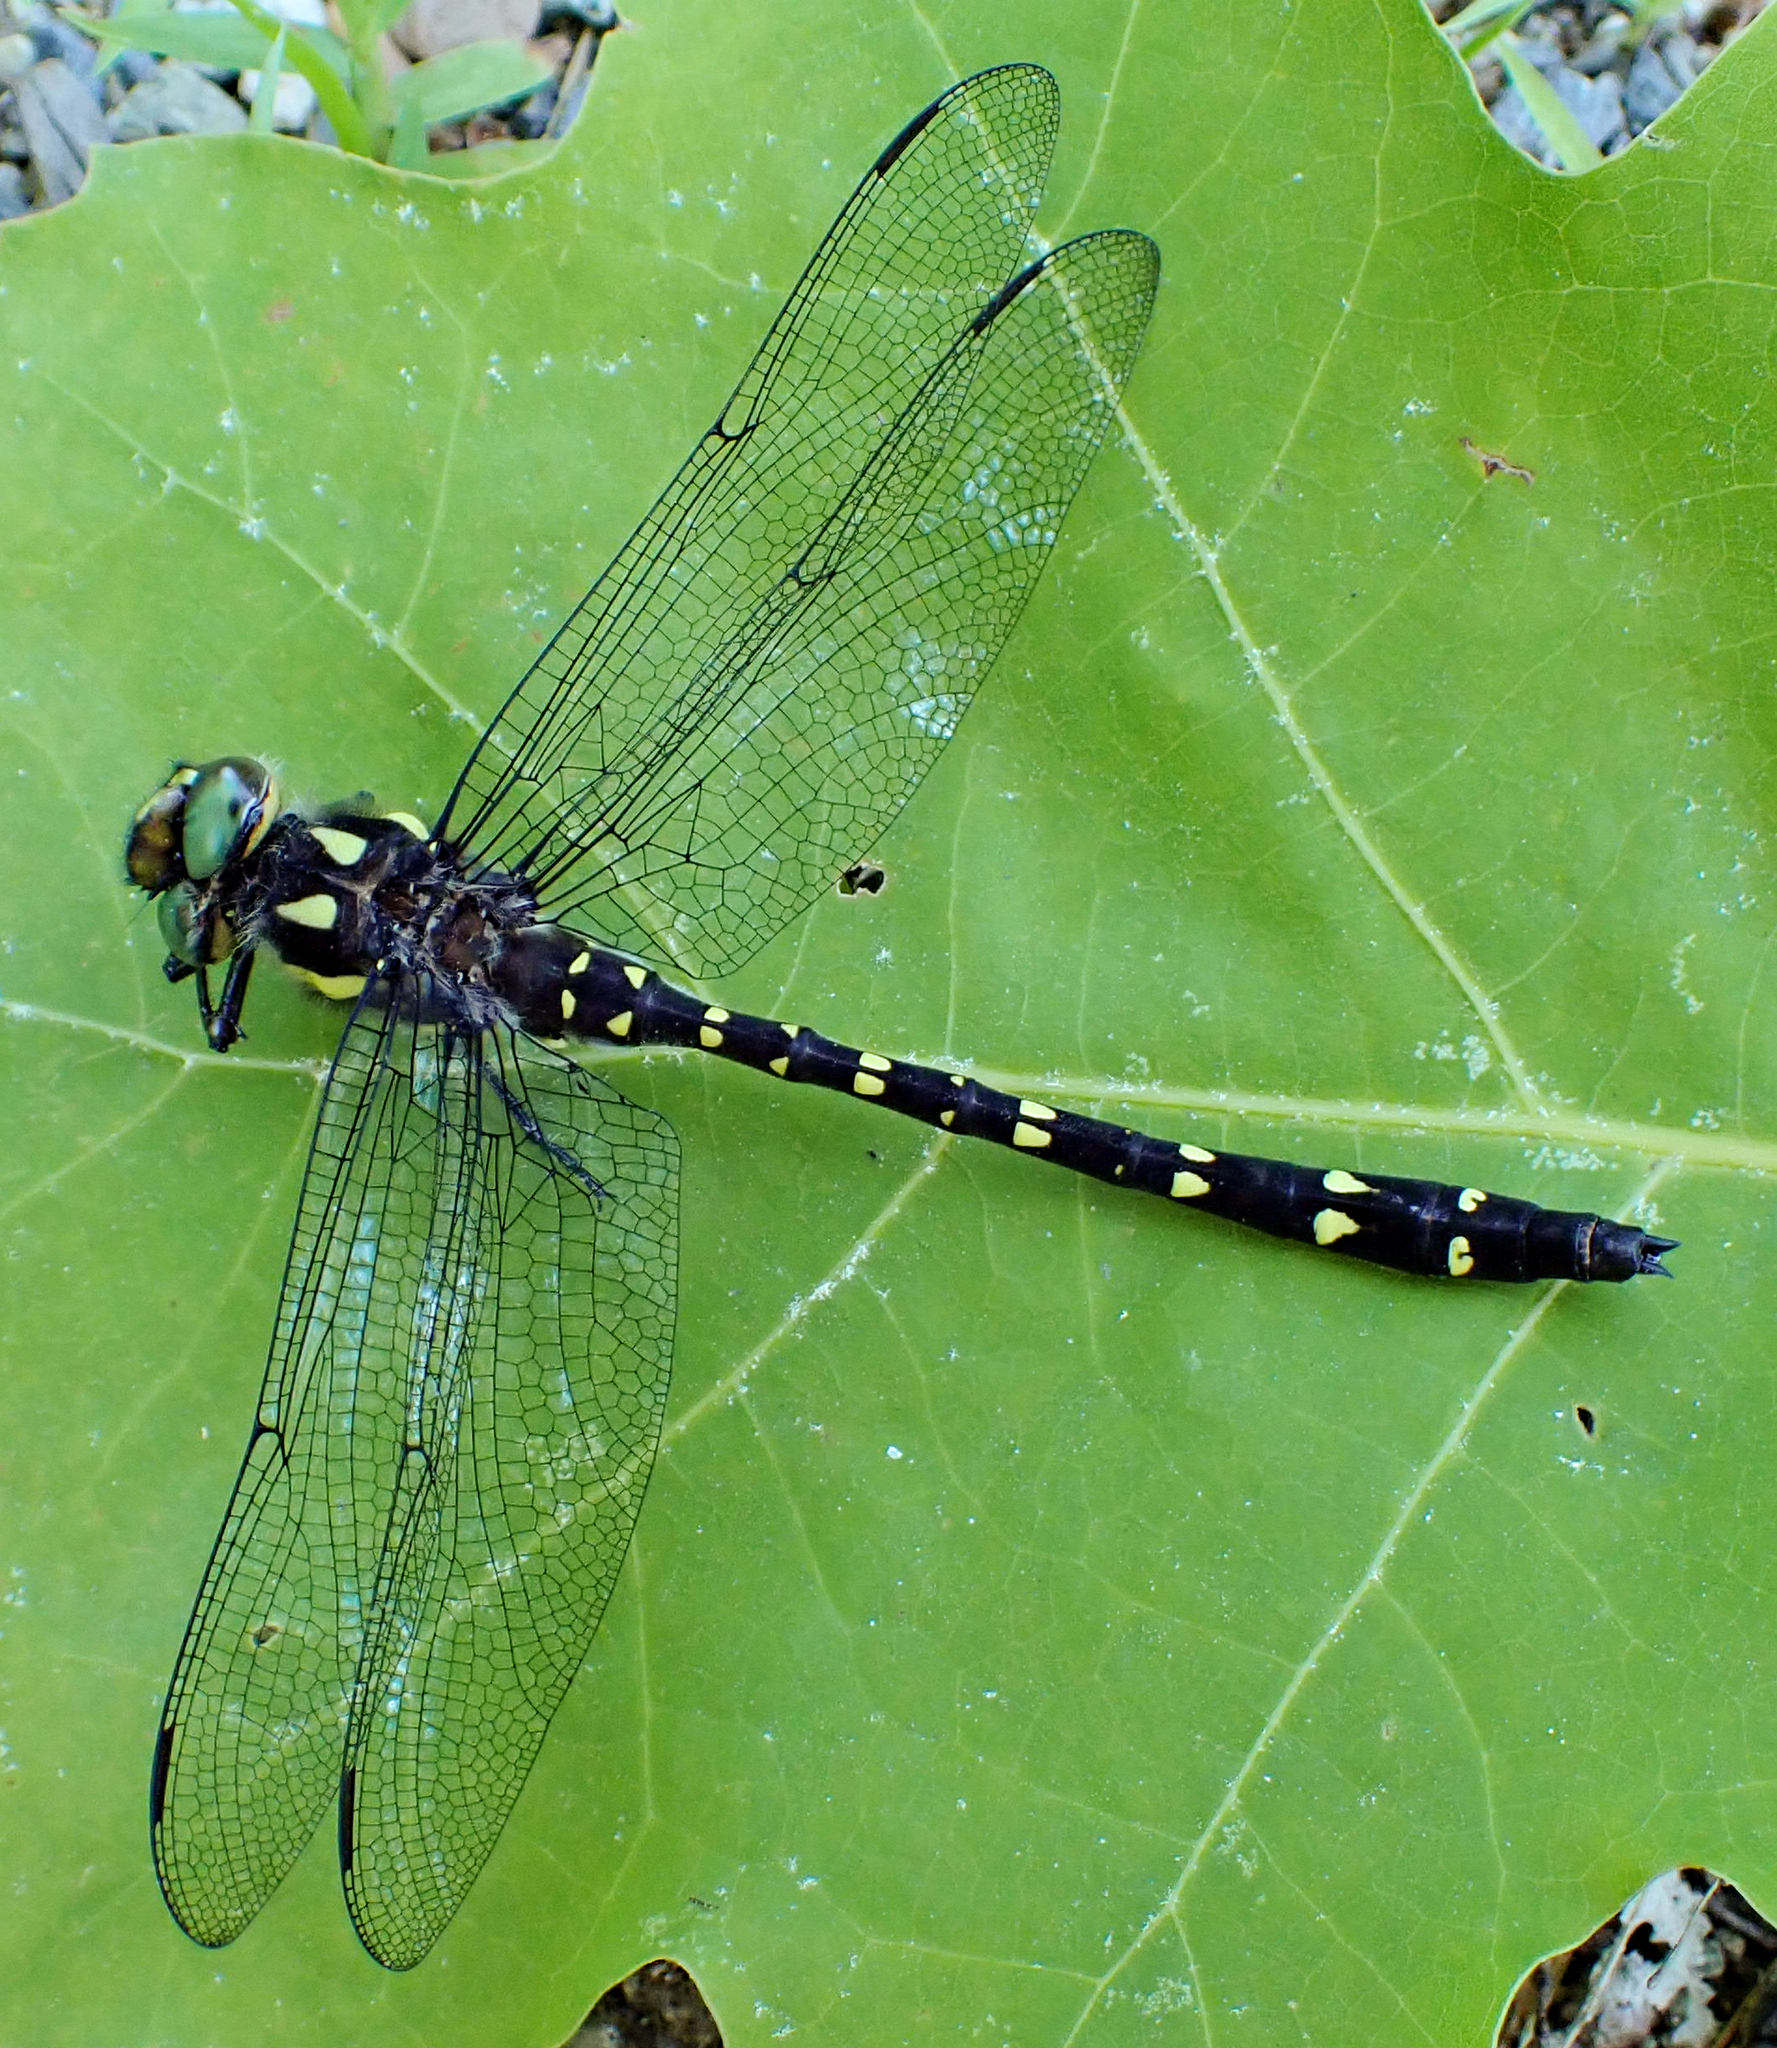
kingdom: Animalia
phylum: Arthropoda
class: Insecta
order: Odonata
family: Cordulegastridae
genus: Cordulegaster
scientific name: Cordulegaster maculata
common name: Twin-spotted spiketail
